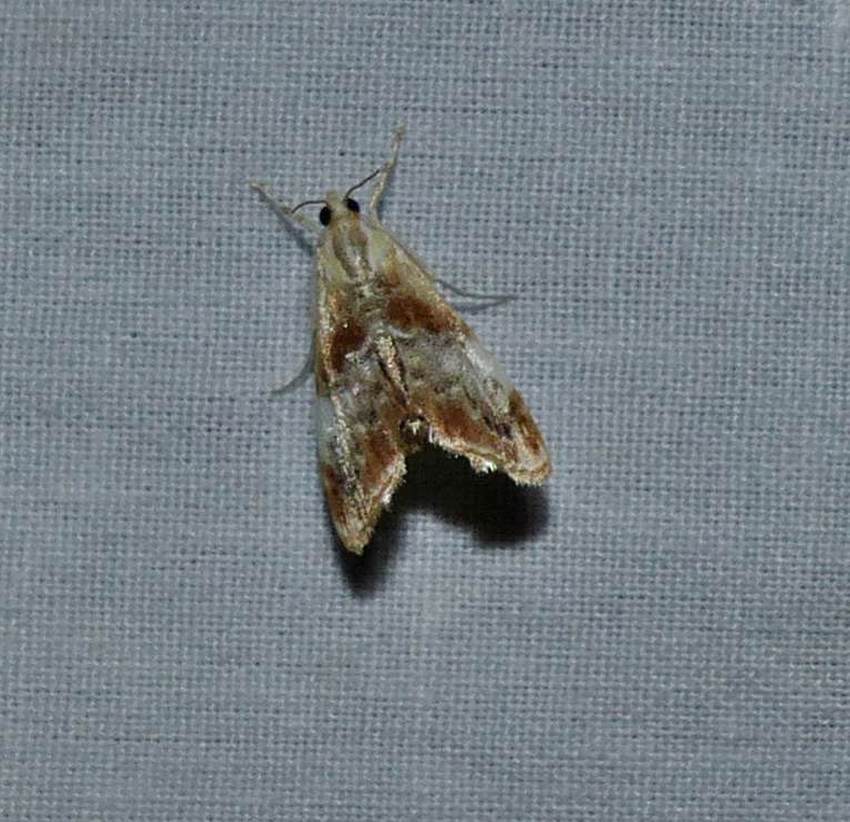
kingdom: Animalia
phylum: Arthropoda
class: Insecta
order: Lepidoptera
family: Crambidae
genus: Dicymolomia
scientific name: Dicymolomia julianalis
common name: Julia's dicymolomia moth
